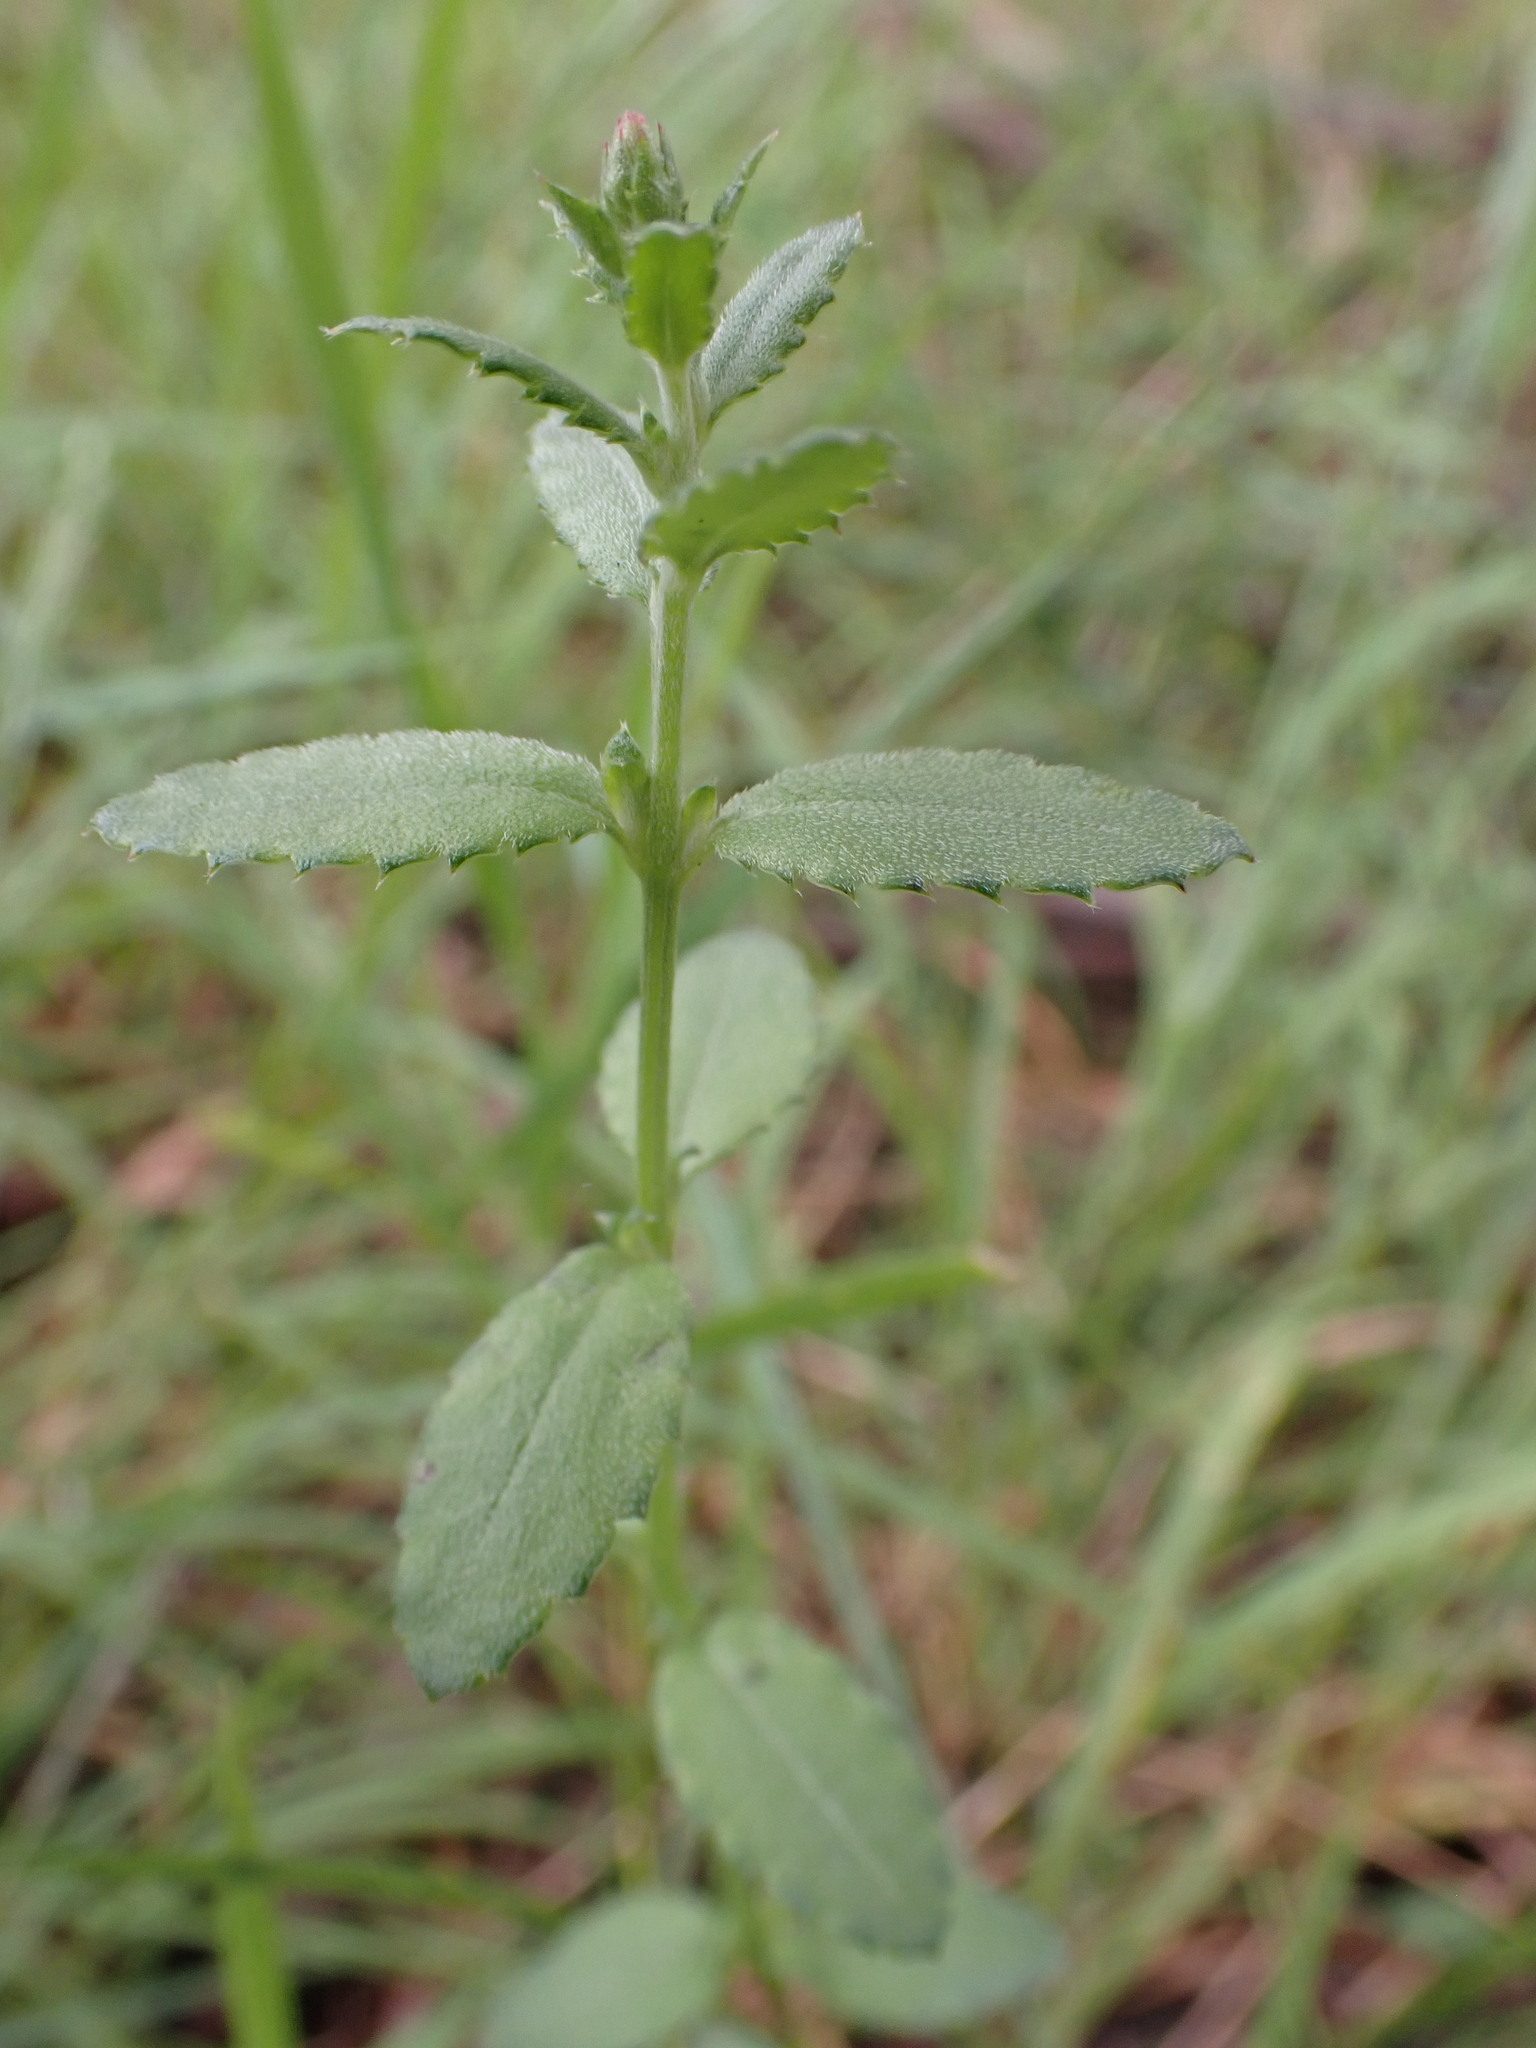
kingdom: Plantae
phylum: Tracheophyta
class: Magnoliopsida
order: Saxifragales
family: Haloragaceae
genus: Gonocarpus
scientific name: Gonocarpus tetragynus
